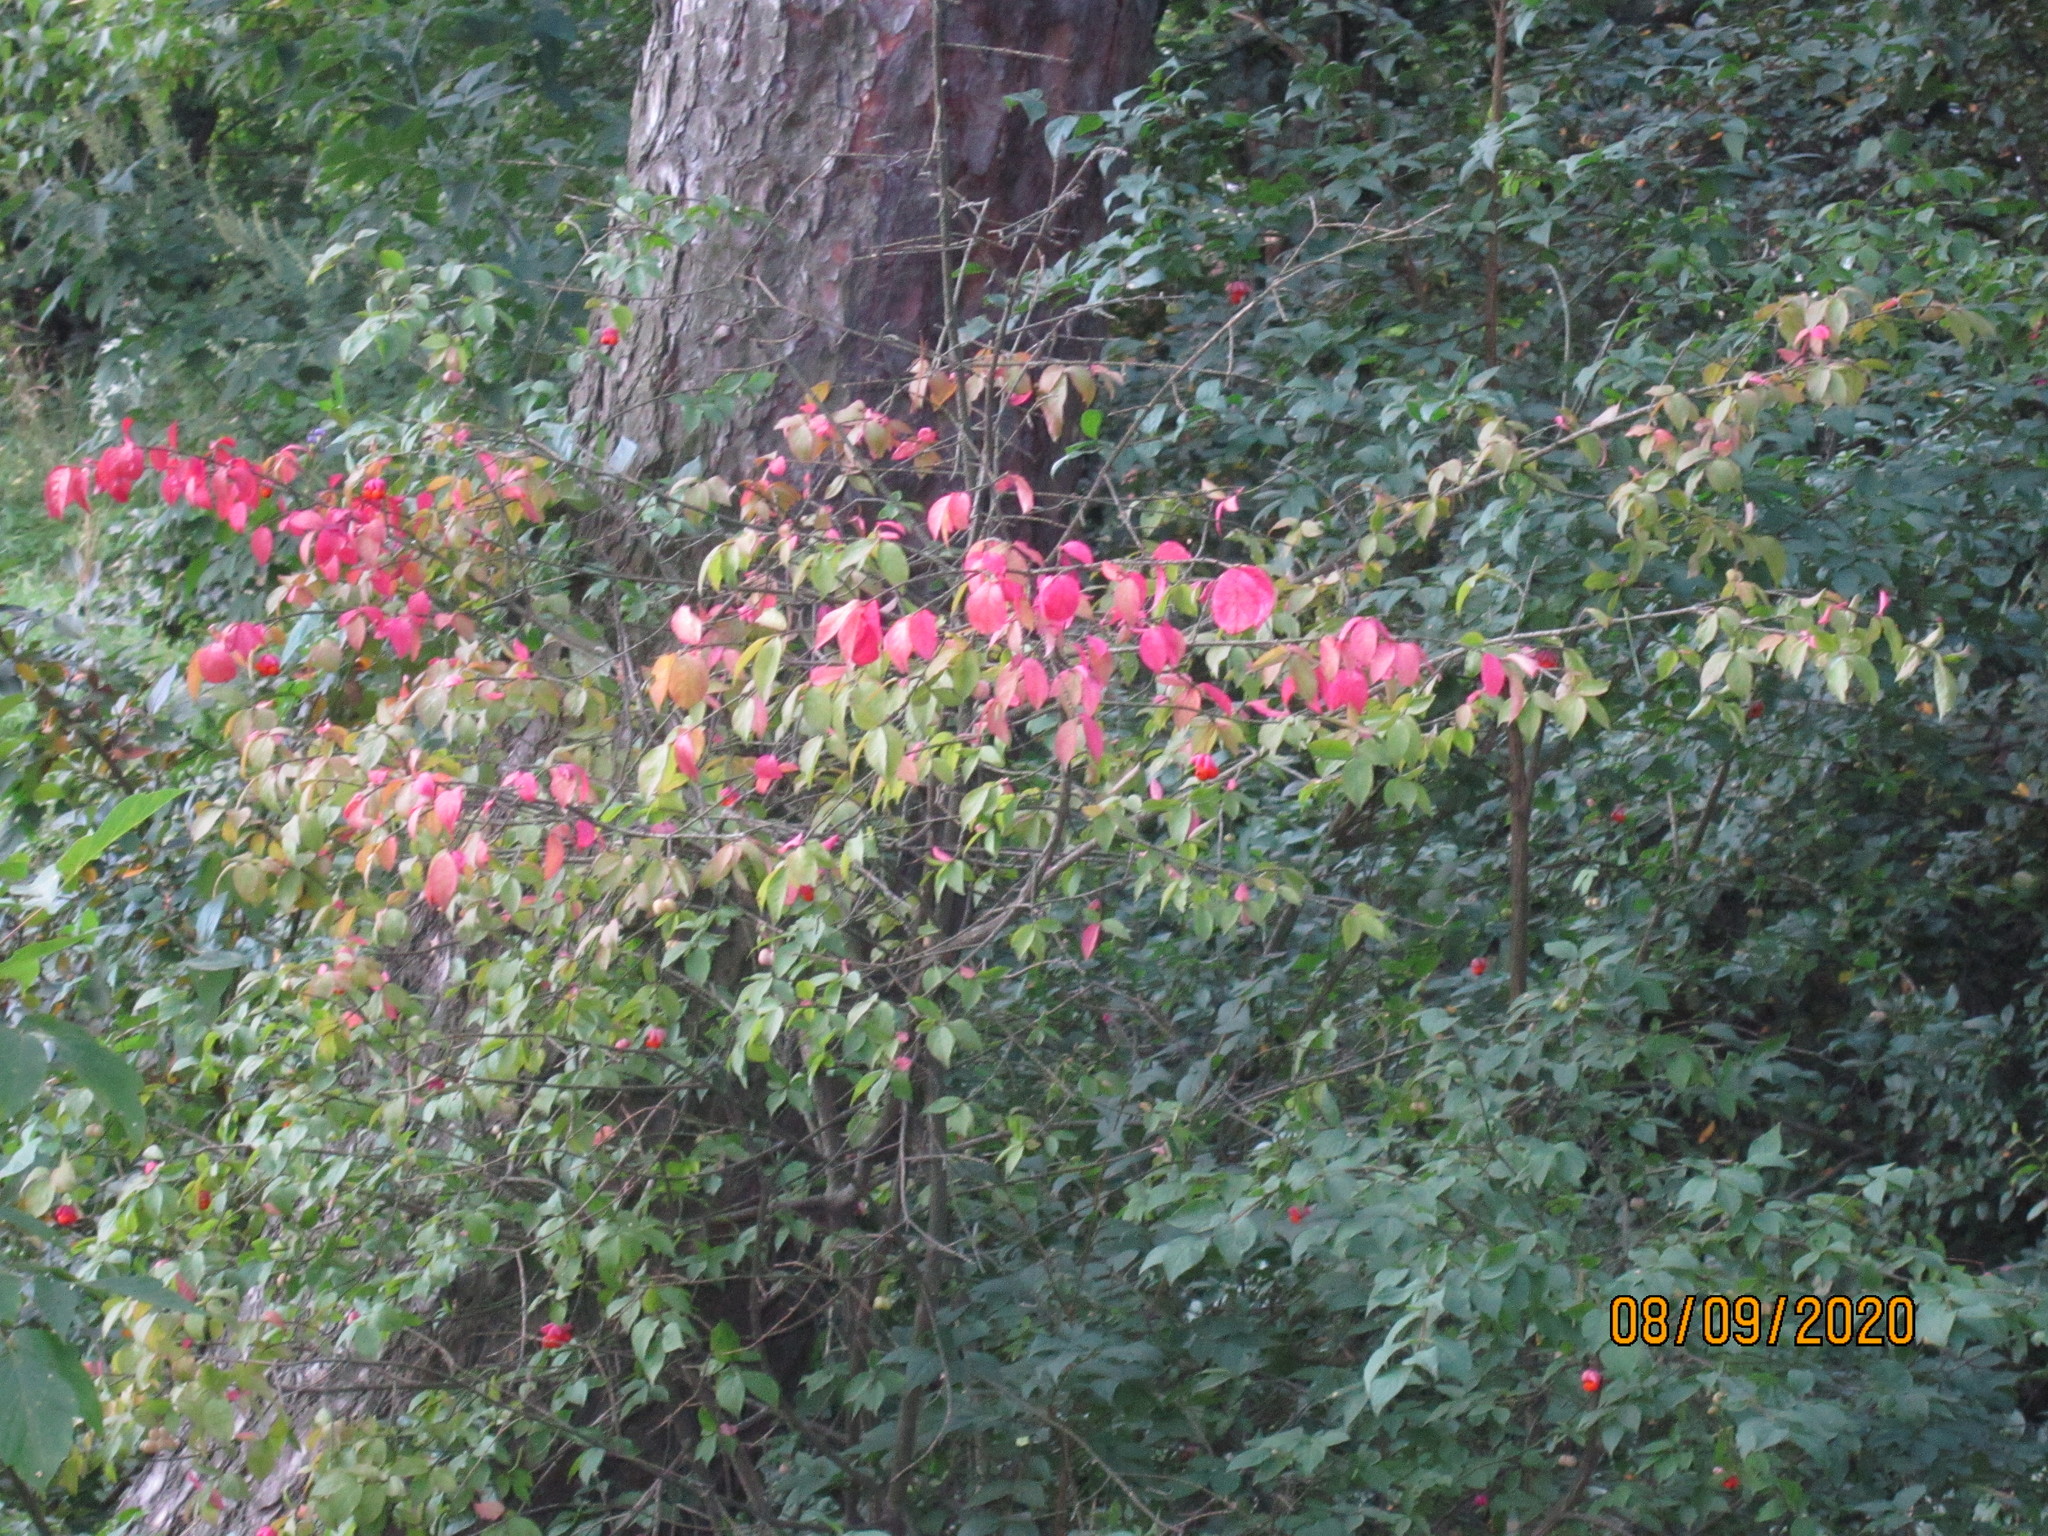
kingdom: Plantae
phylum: Tracheophyta
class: Magnoliopsida
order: Celastrales
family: Celastraceae
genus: Euonymus
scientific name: Euonymus verrucosus
